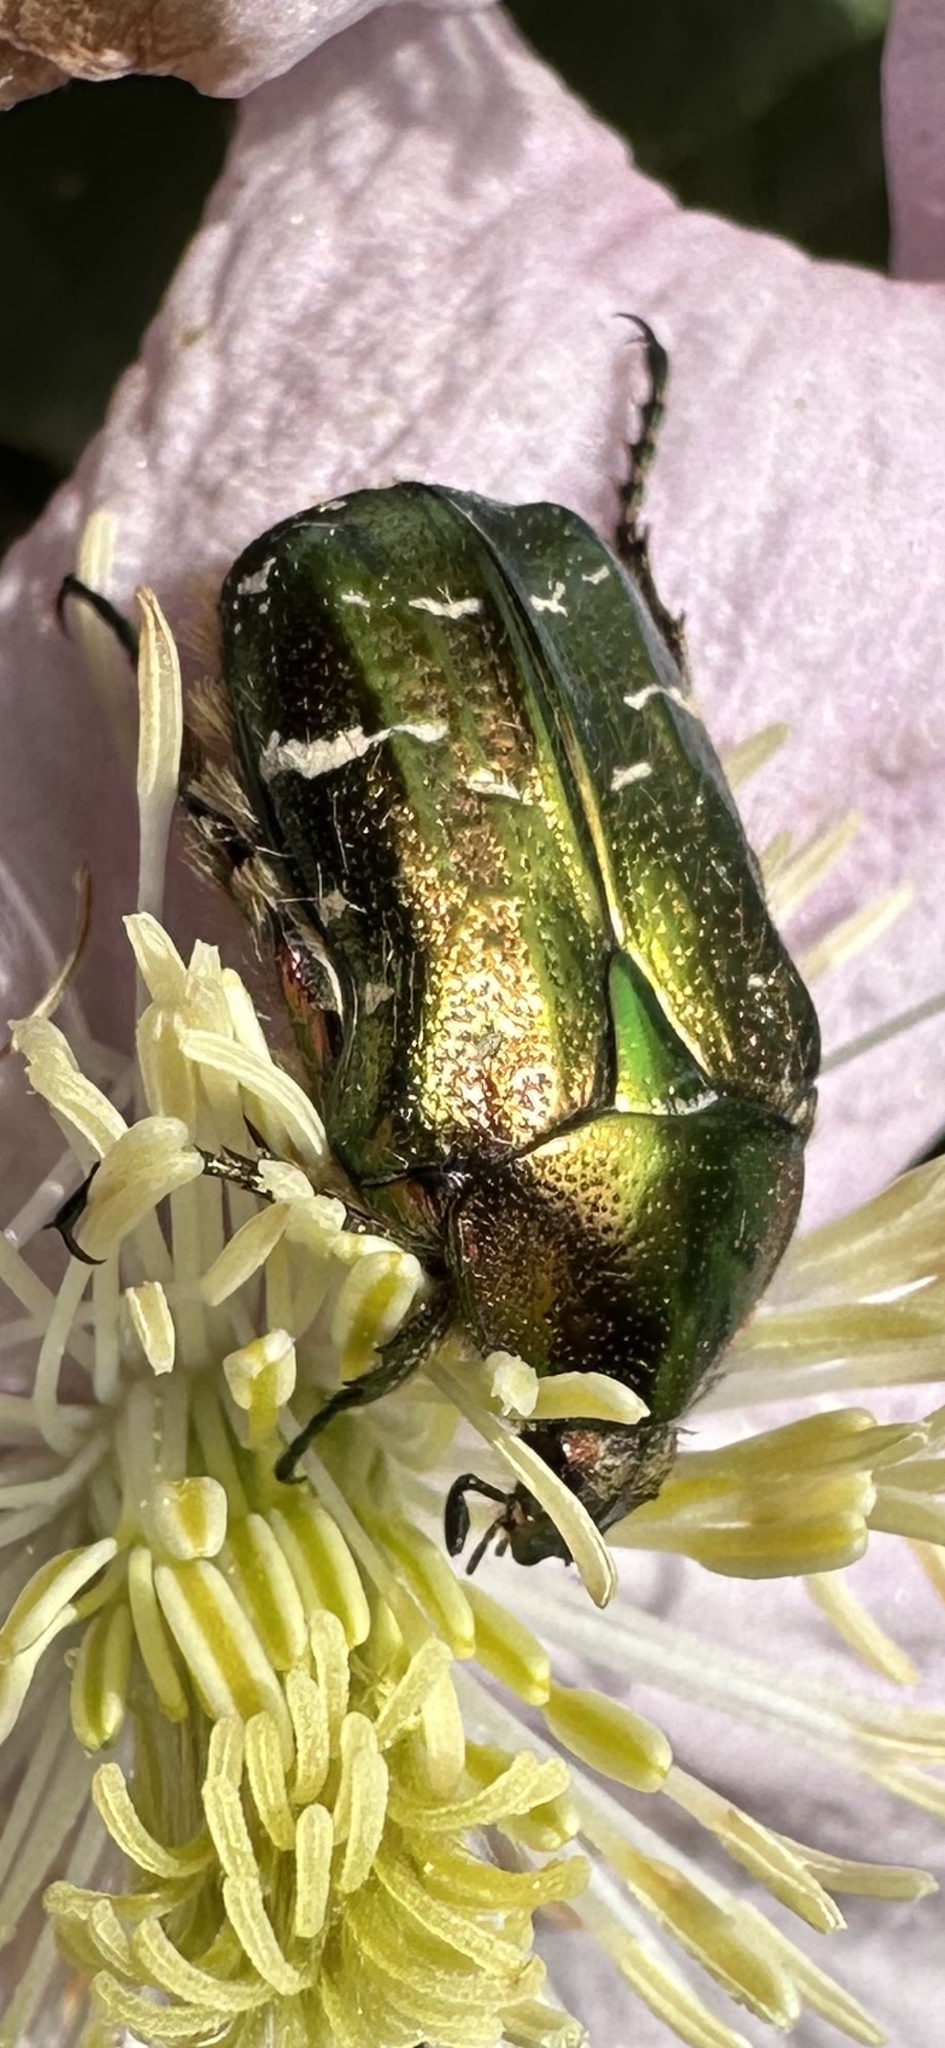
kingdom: Animalia
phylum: Arthropoda
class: Insecta
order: Coleoptera
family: Scarabaeidae
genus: Cetonia
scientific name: Cetonia aurata
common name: Rose chafer
